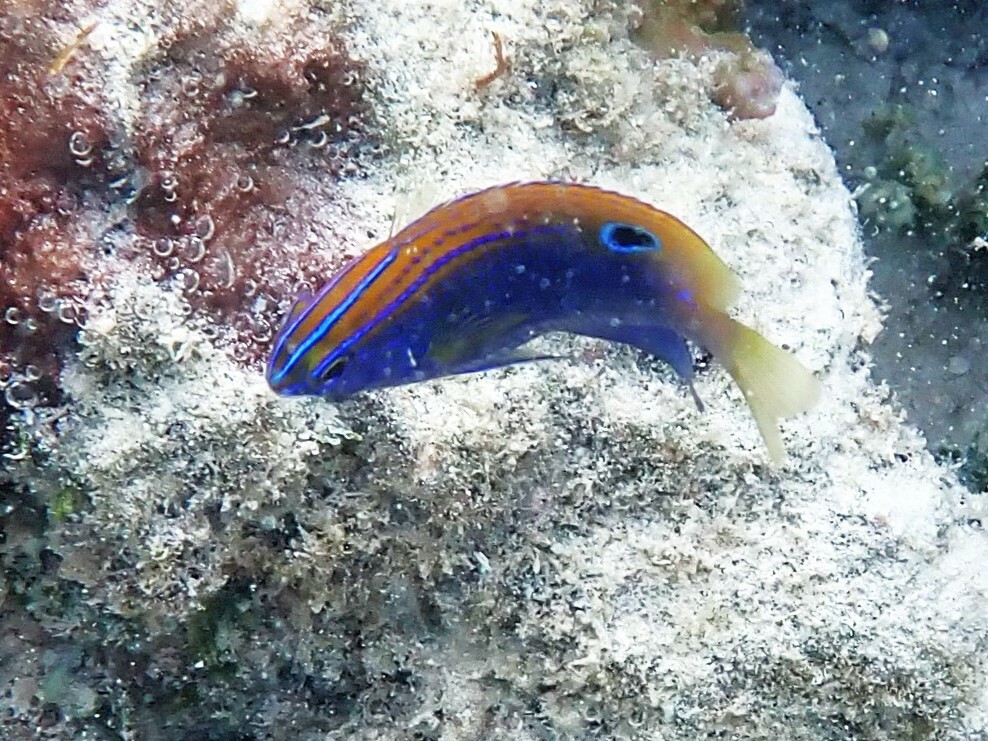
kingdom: Animalia
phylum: Chordata
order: Perciformes
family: Pomacentridae
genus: Pomacentrus
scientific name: Pomacentrus vaiuli
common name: Princess damsel
